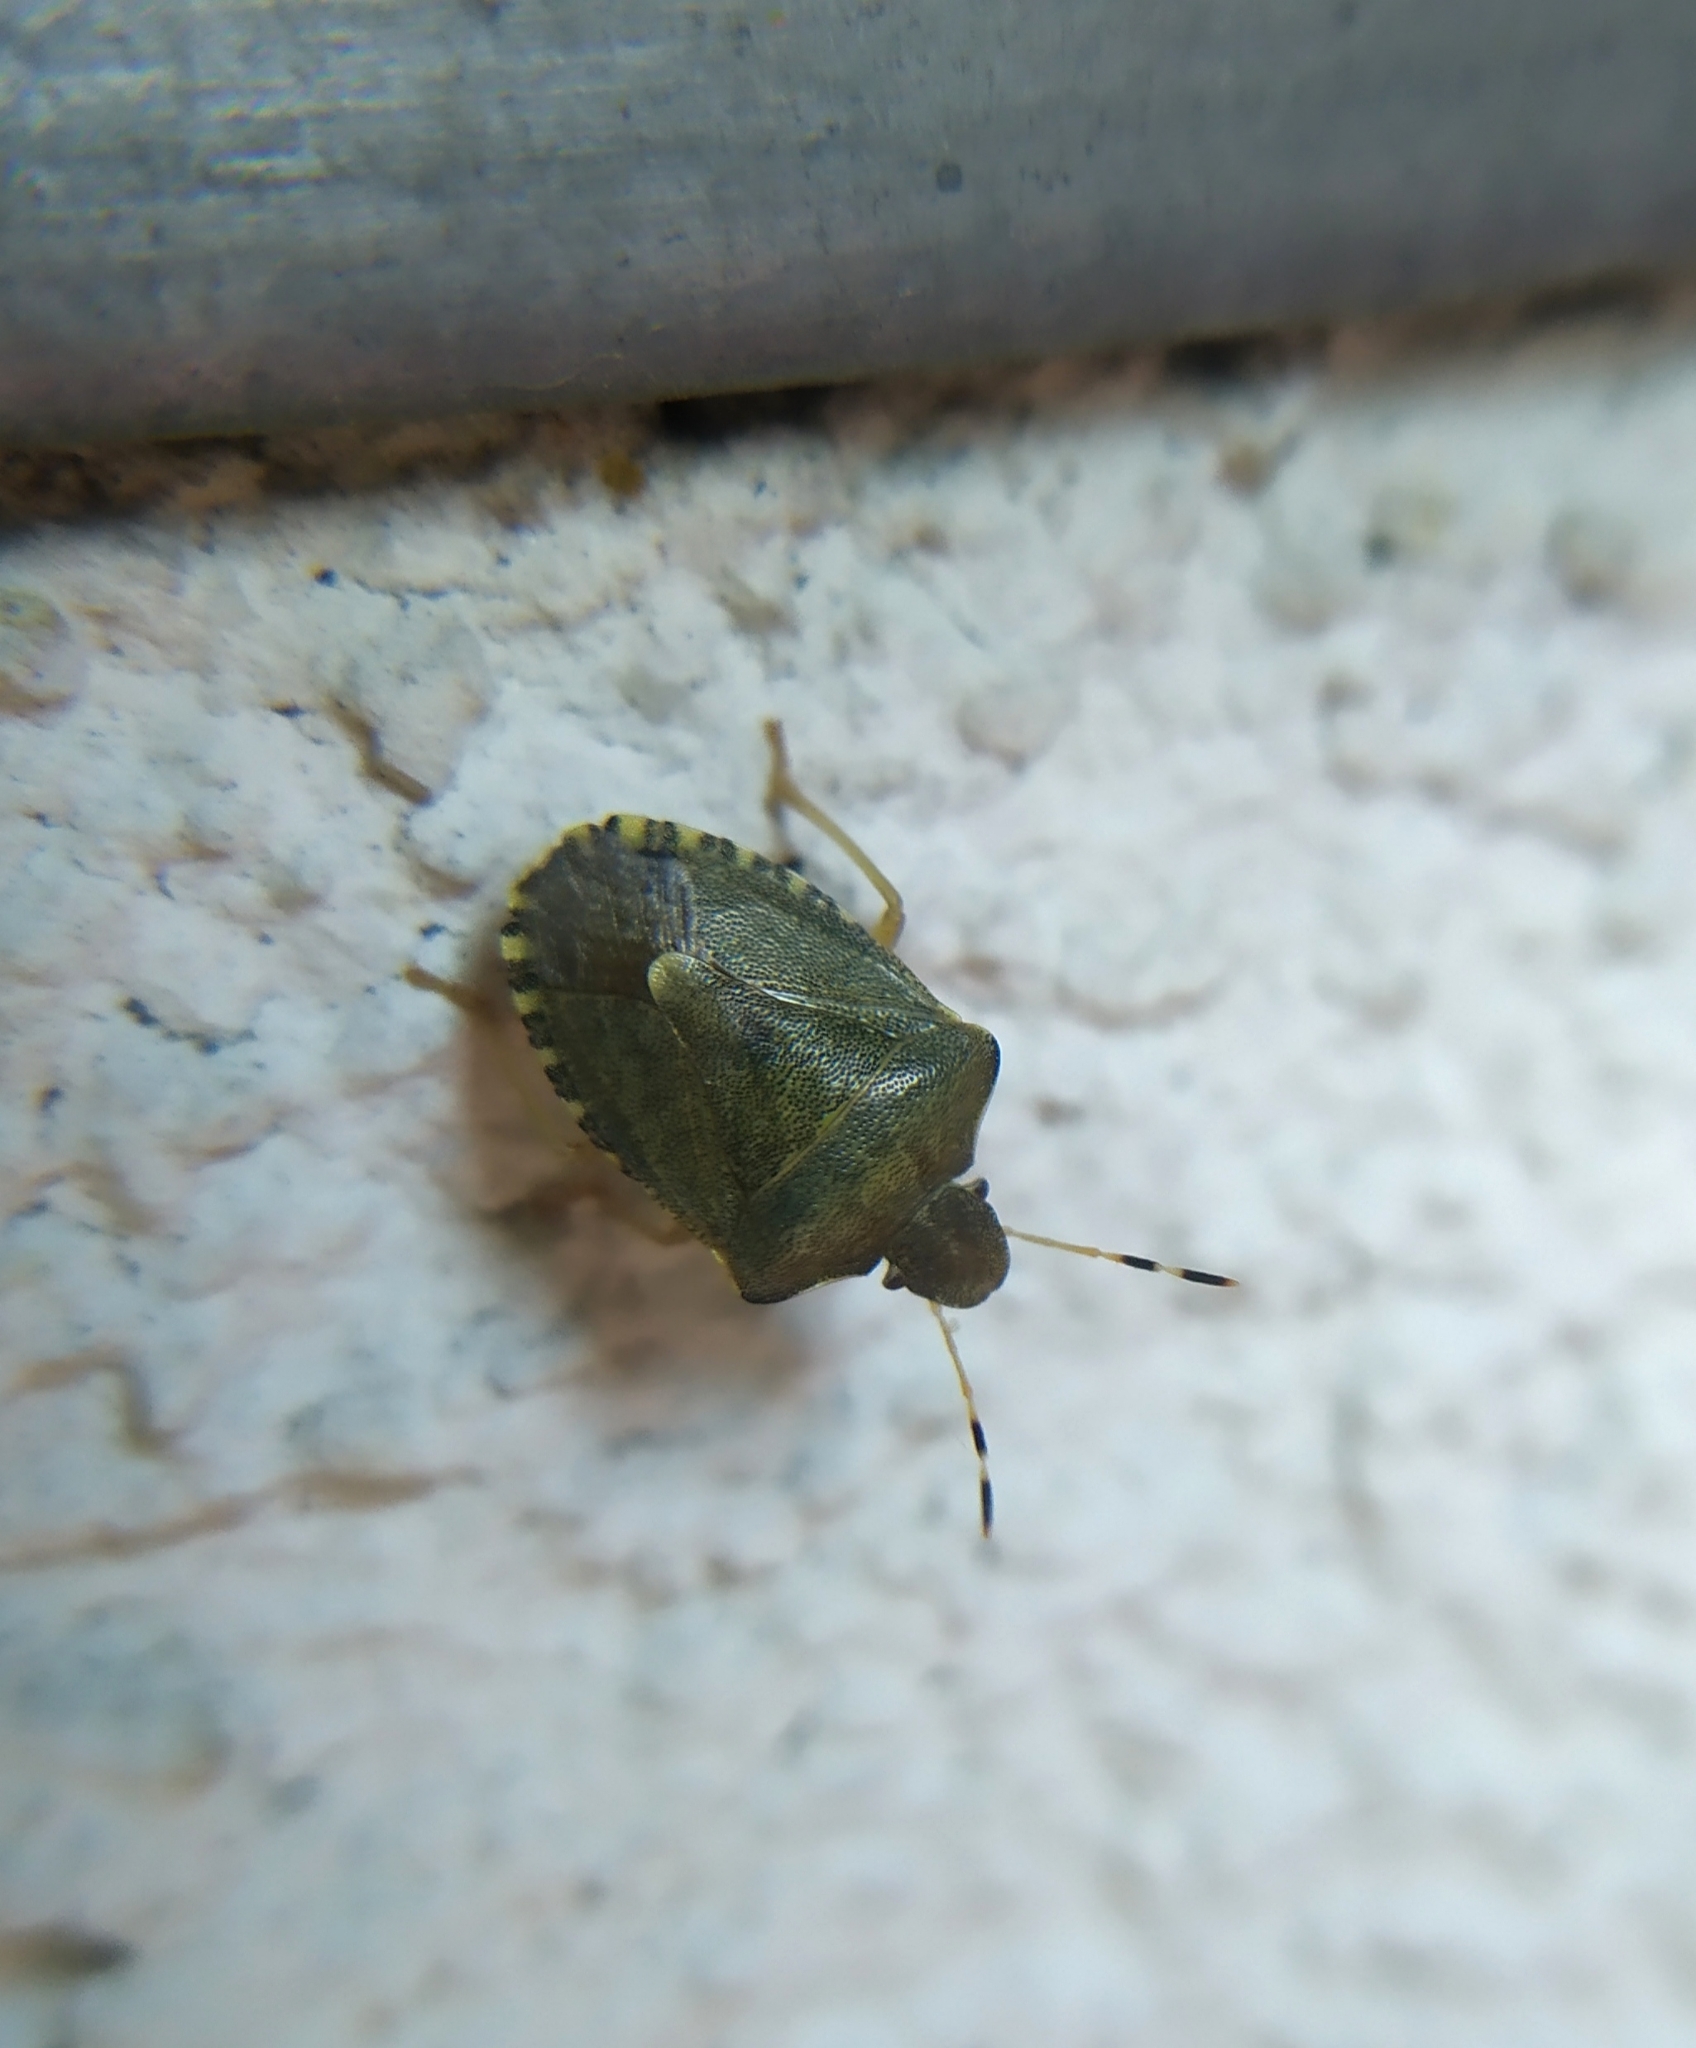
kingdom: Animalia
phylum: Arthropoda
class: Insecta
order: Hemiptera
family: Pentatomidae
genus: Holcostethus
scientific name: Holcostethus strictus
